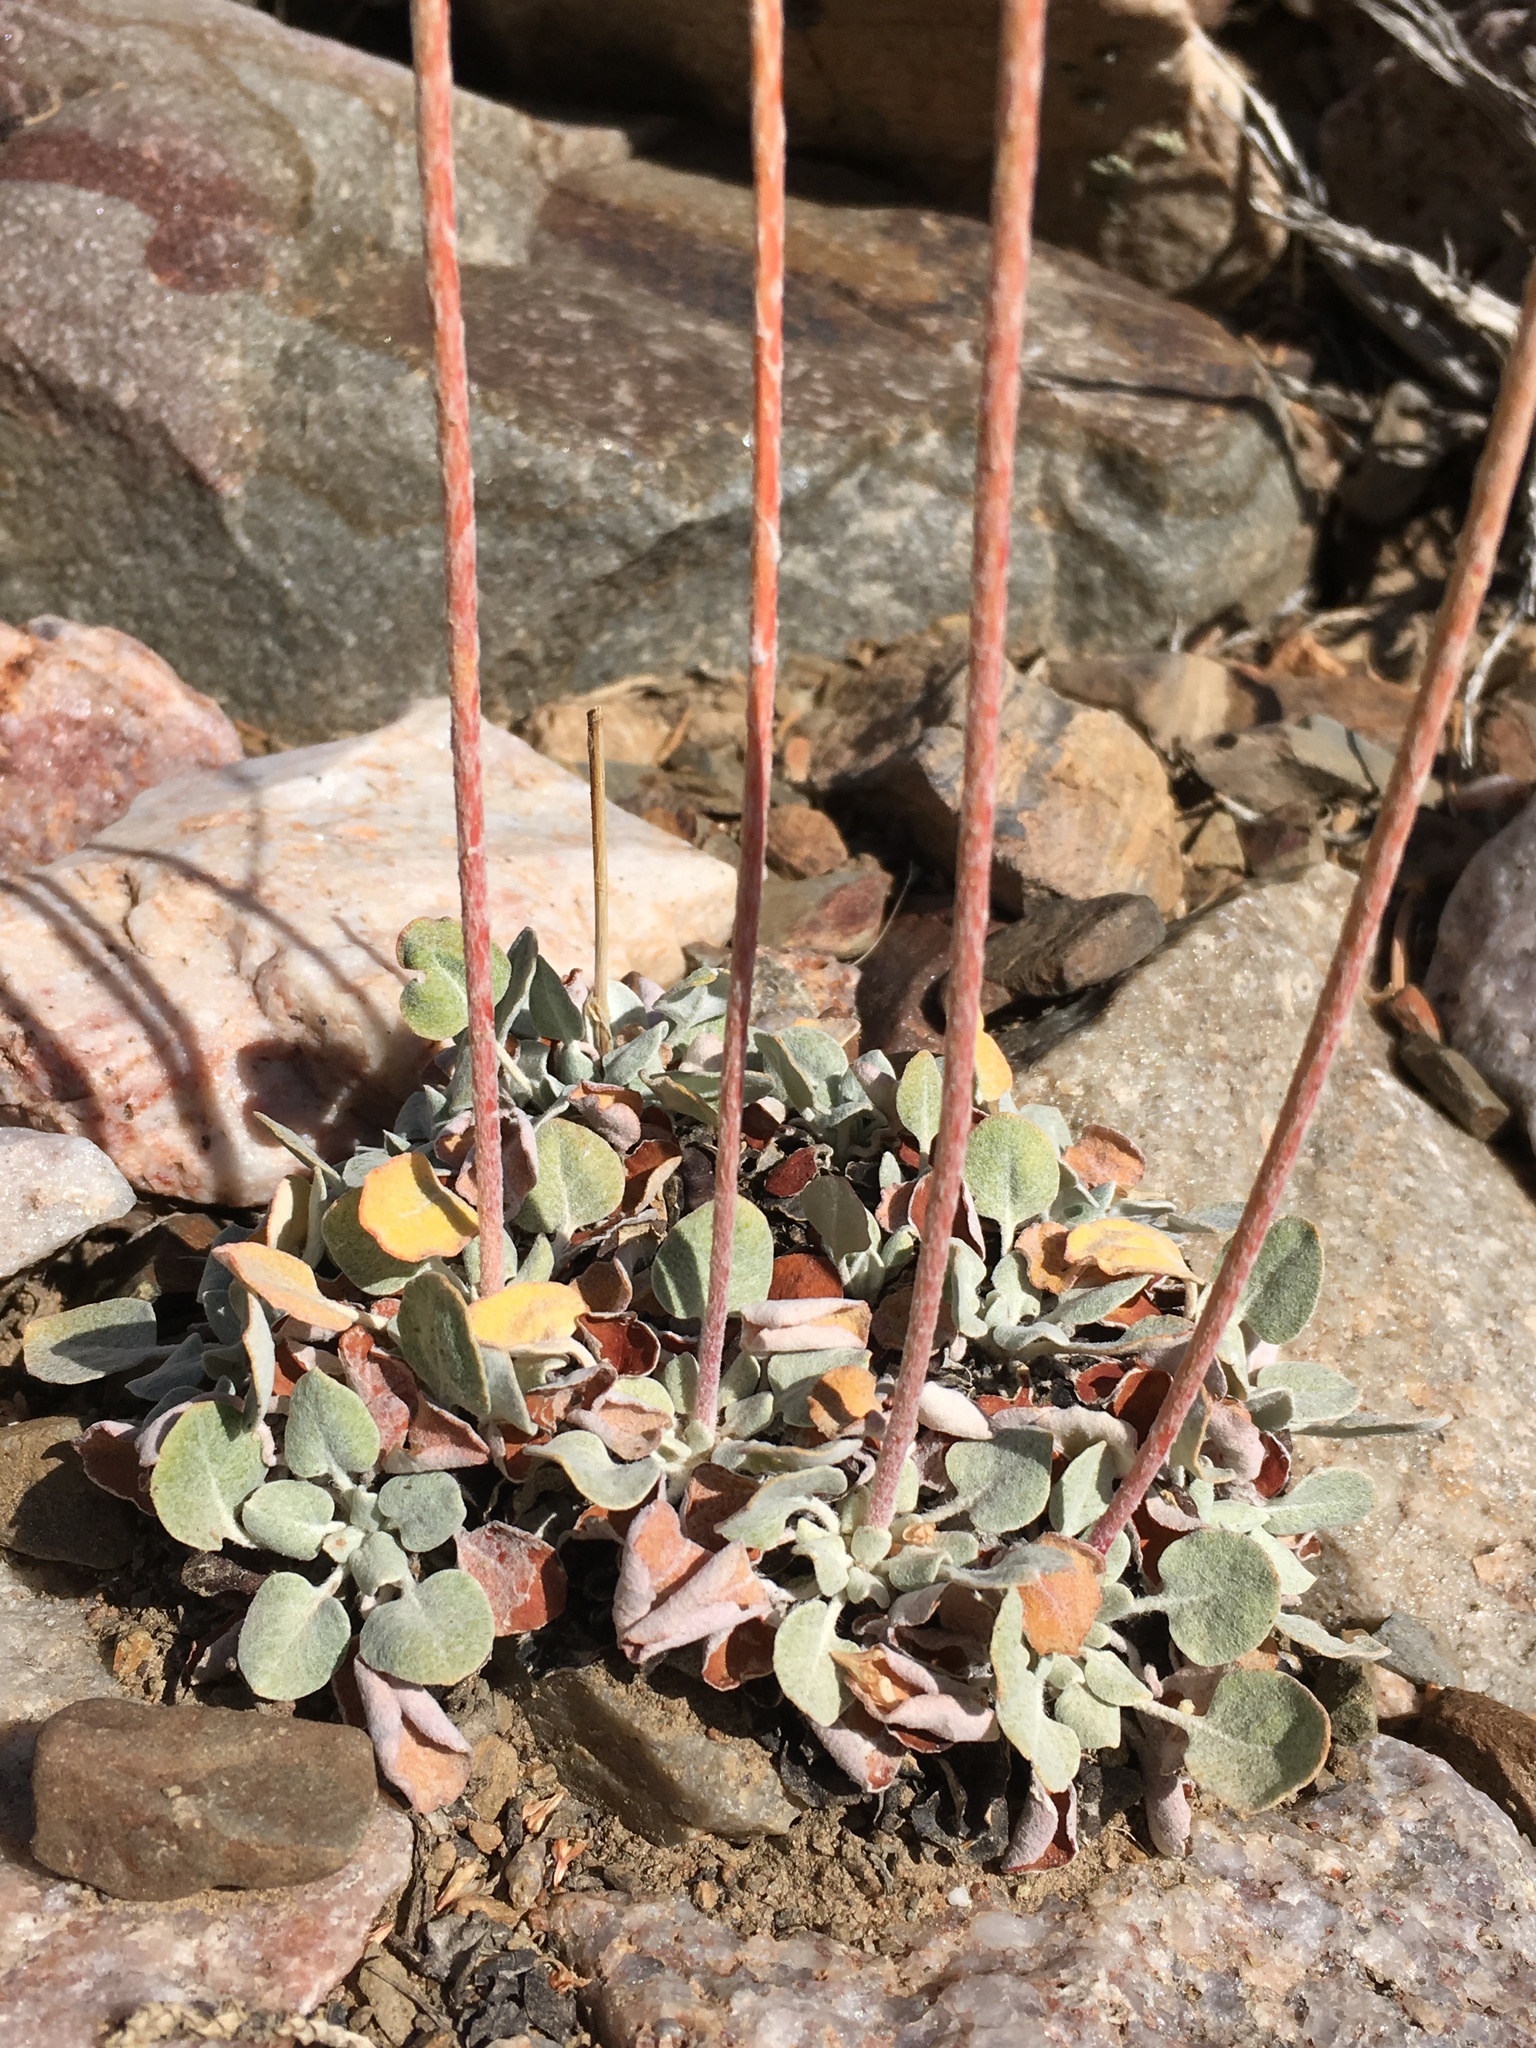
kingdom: Plantae
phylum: Tracheophyta
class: Magnoliopsida
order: Caryophyllales
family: Polygonaceae
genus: Eriogonum
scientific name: Eriogonum mensicola
